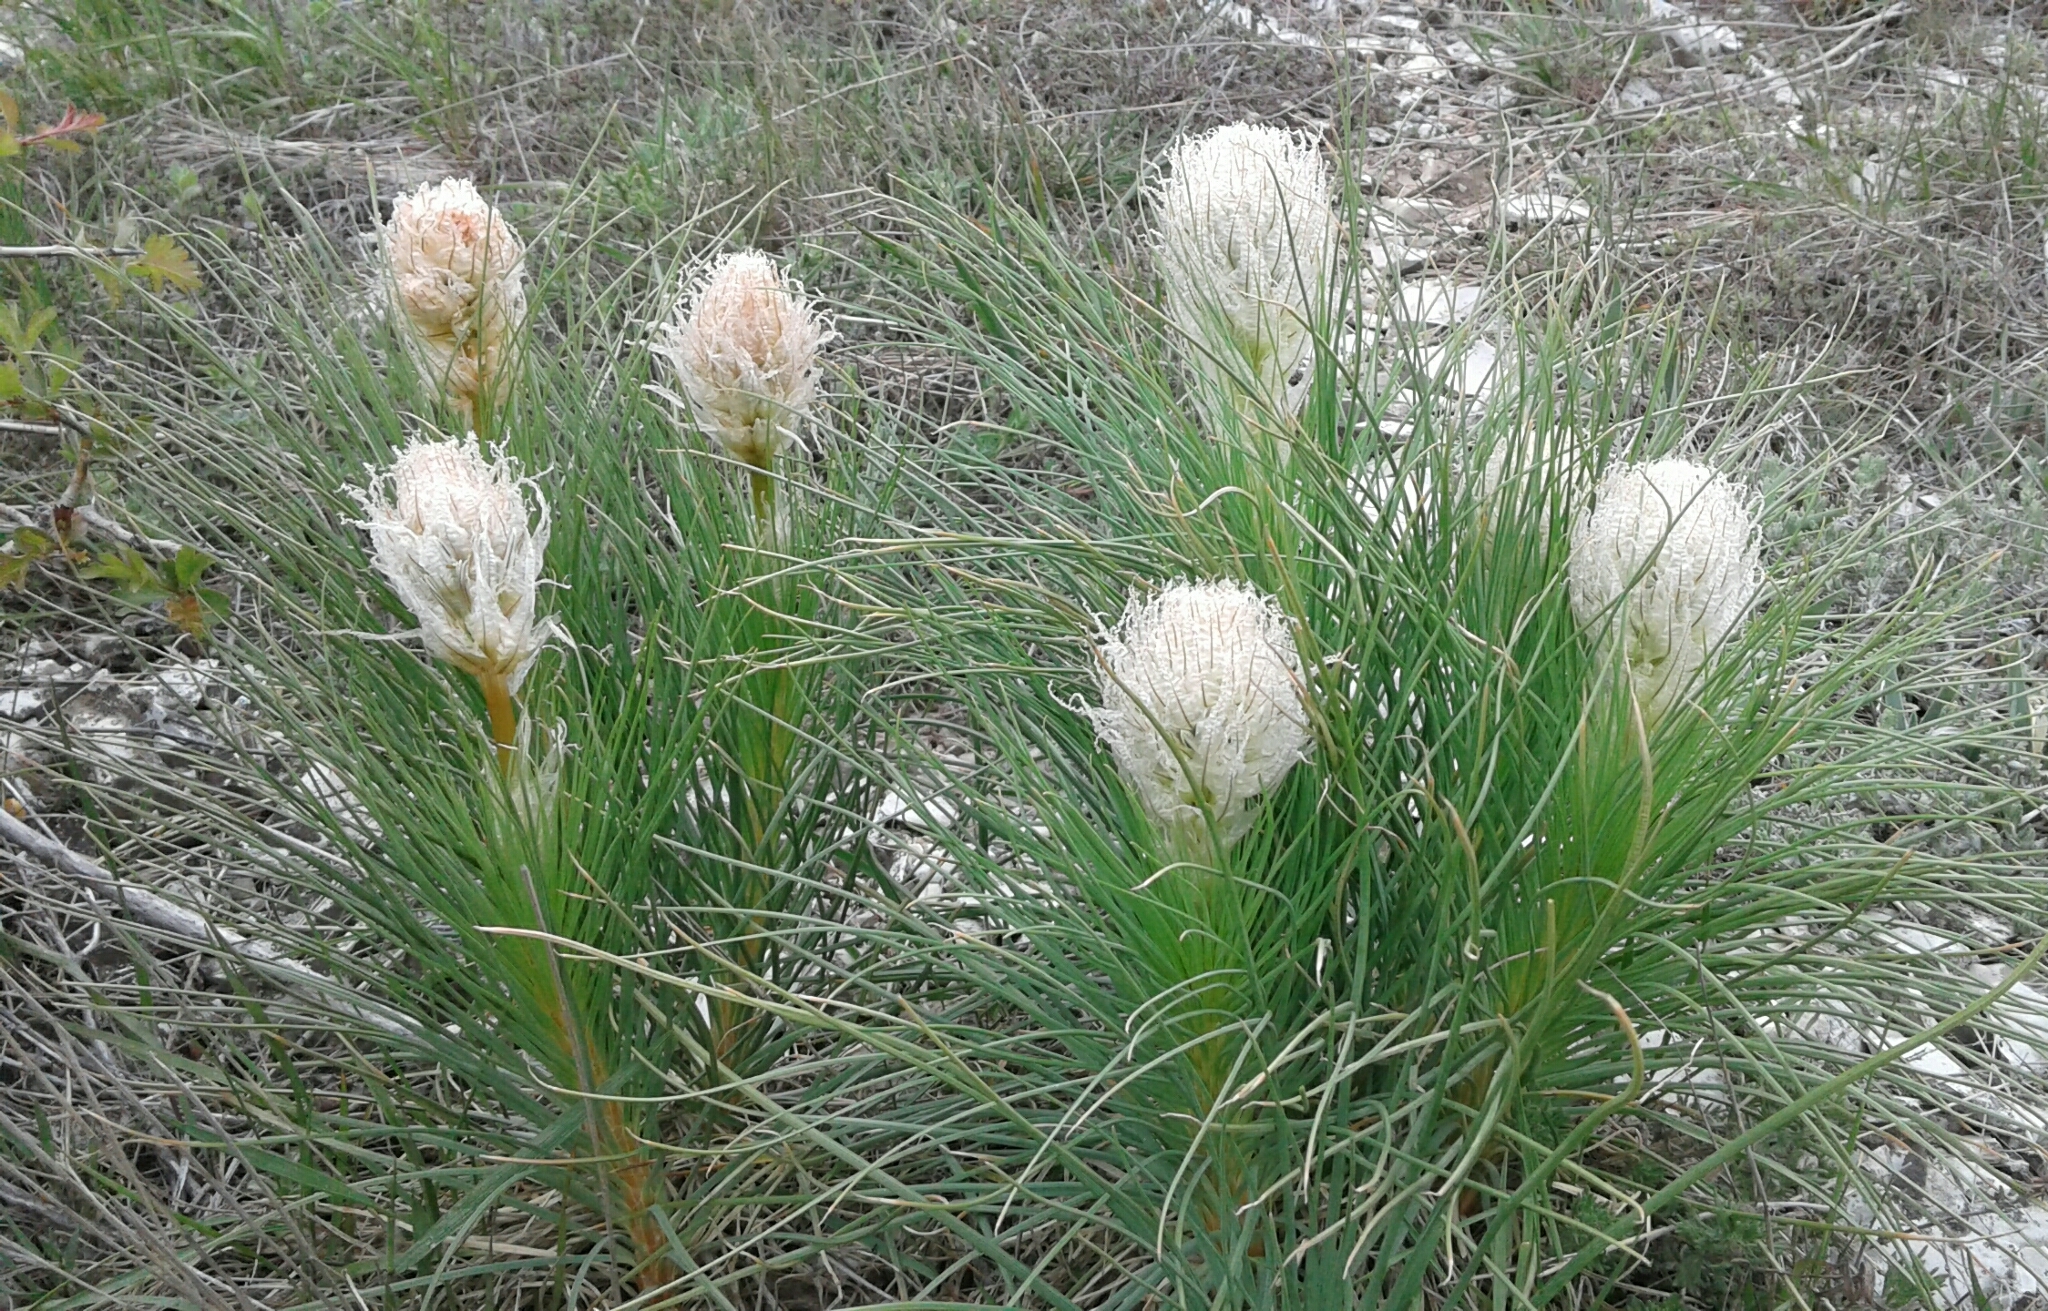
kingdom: Plantae
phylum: Tracheophyta
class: Liliopsida
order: Asparagales
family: Asphodelaceae
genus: Asphodeline
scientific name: Asphodeline taurica
